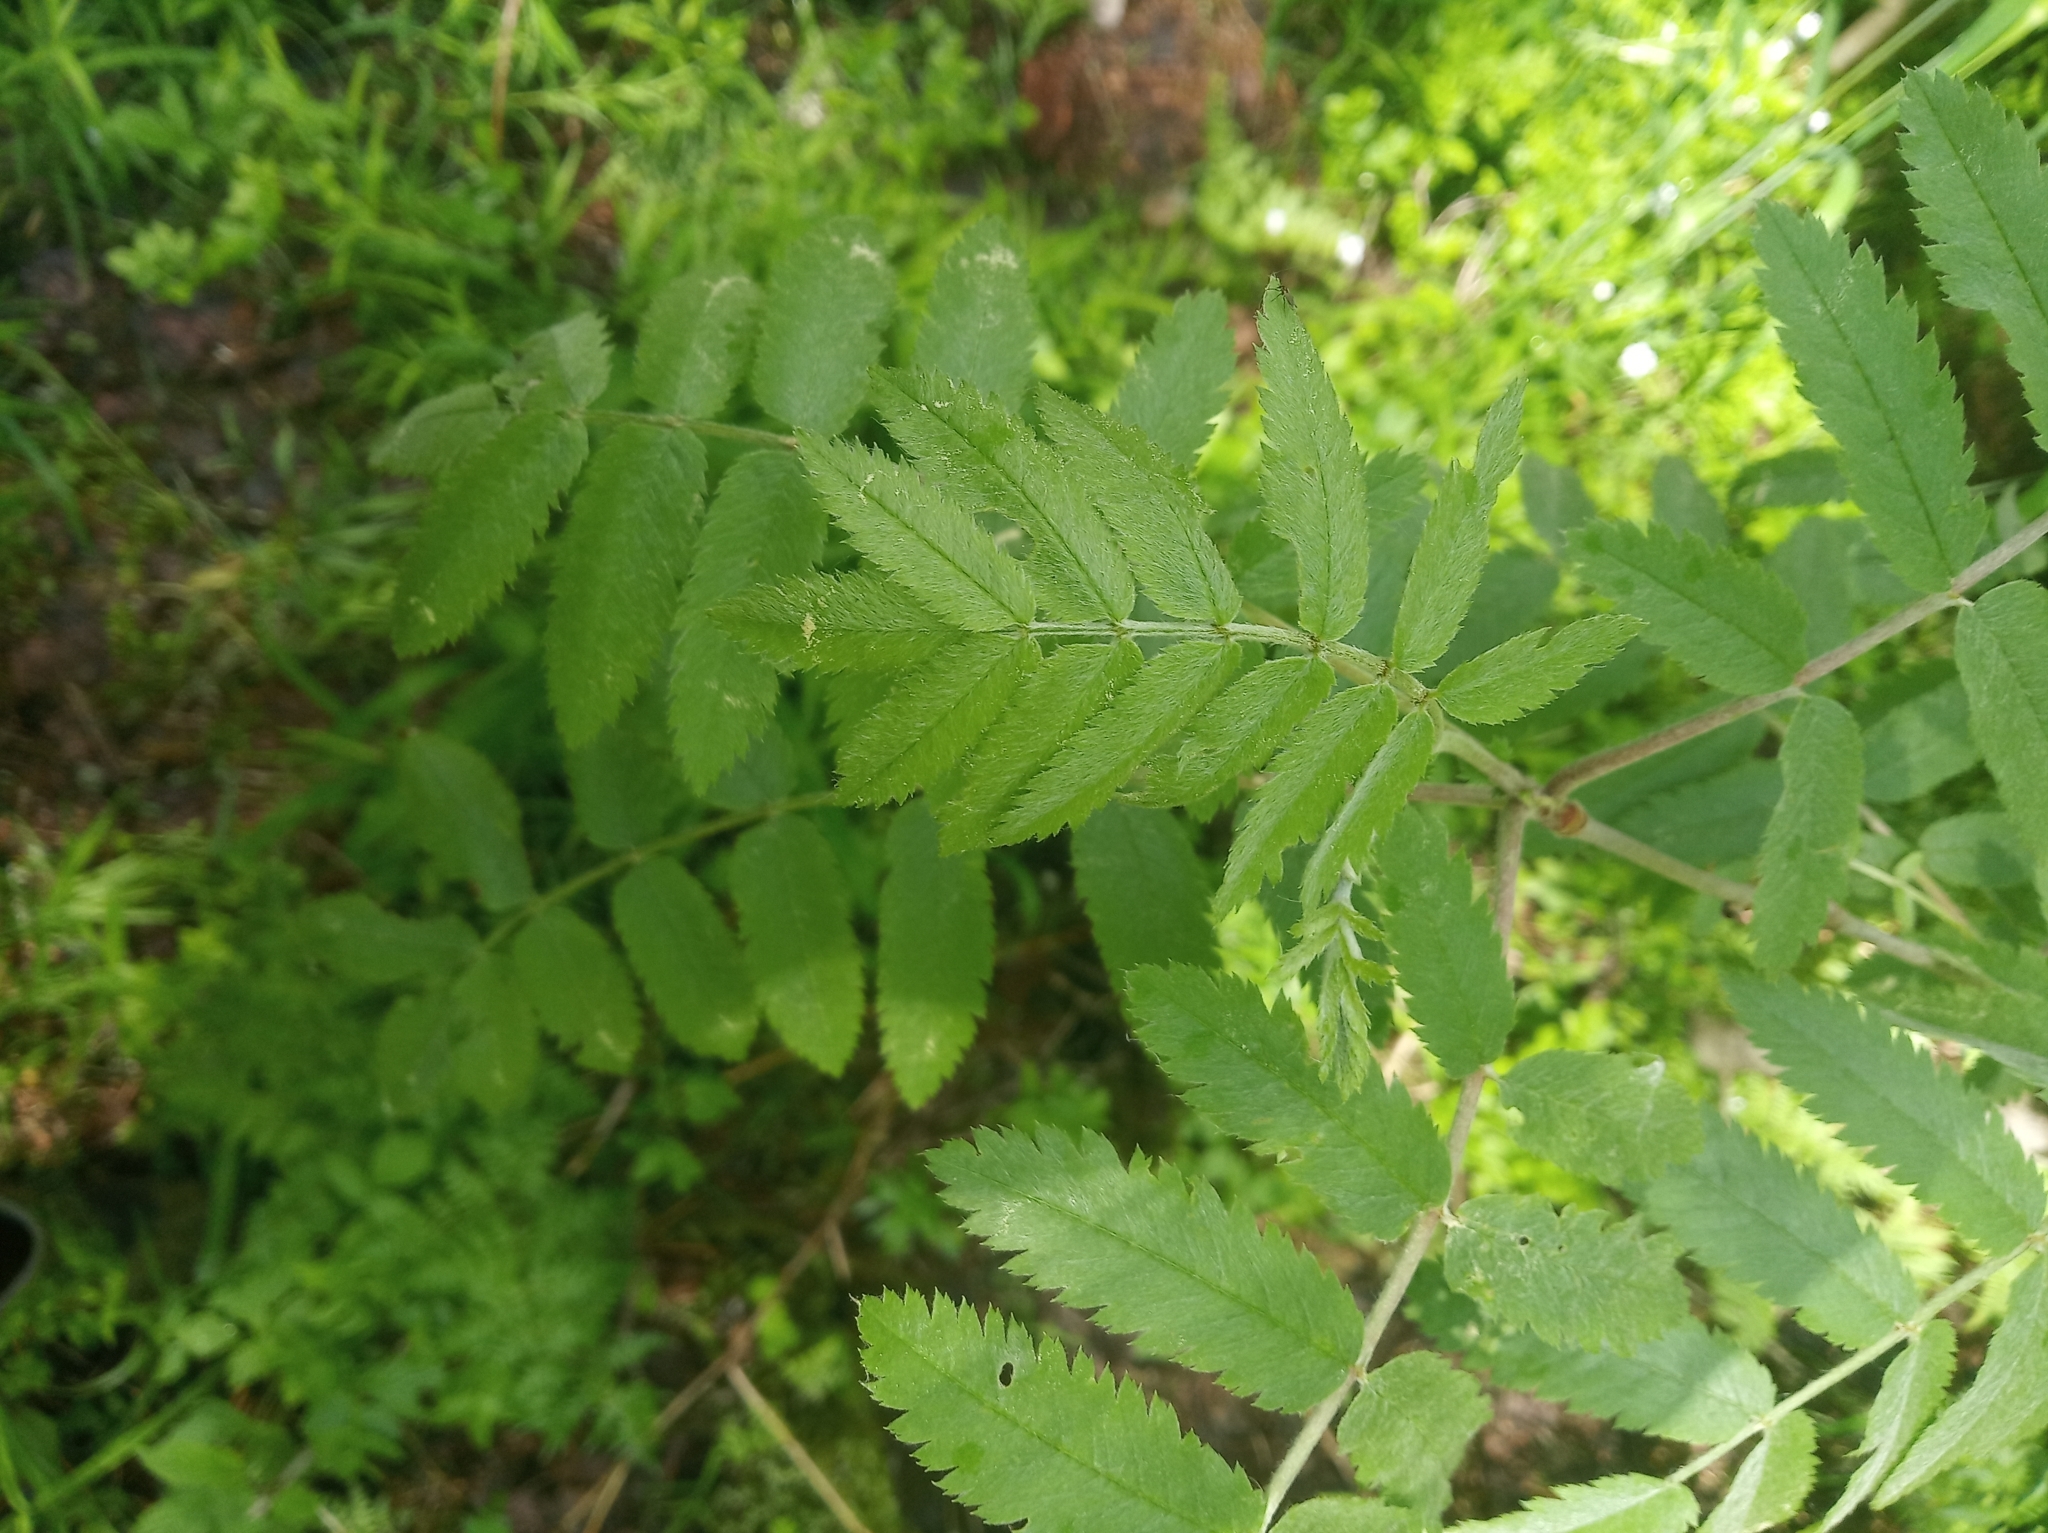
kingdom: Plantae
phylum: Tracheophyta
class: Magnoliopsida
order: Rosales
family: Rosaceae
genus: Sorbus
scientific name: Sorbus aucuparia
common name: Rowan
